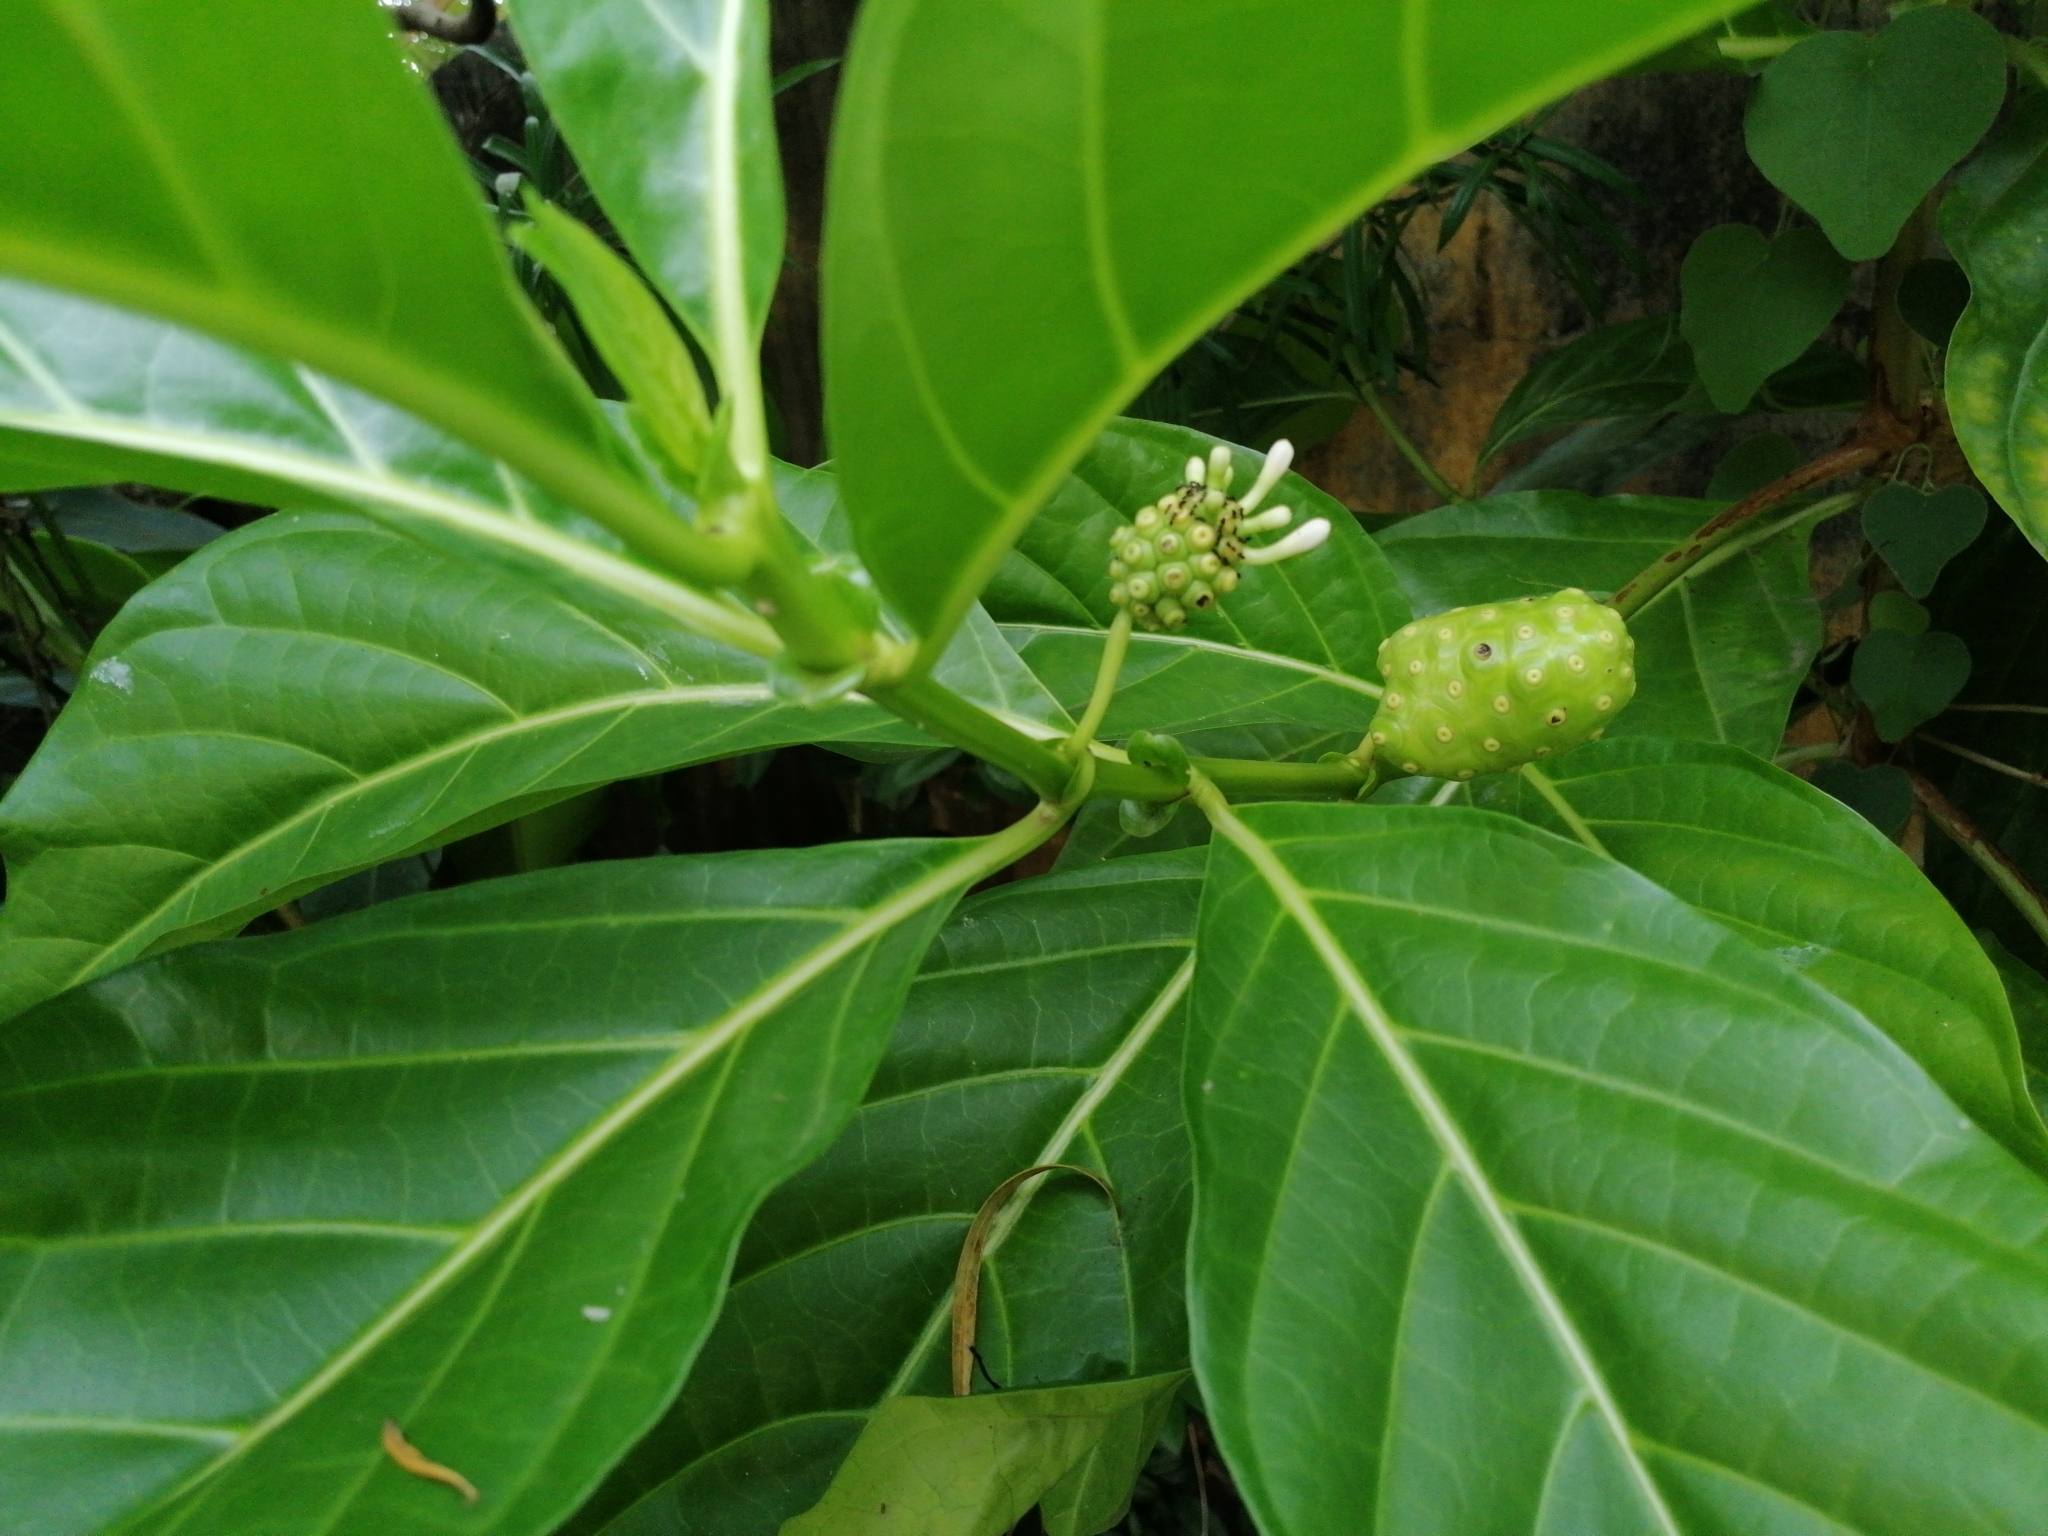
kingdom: Plantae
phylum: Tracheophyta
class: Magnoliopsida
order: Gentianales
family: Rubiaceae
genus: Morinda
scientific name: Morinda citrifolia
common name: Indian-mulberry
